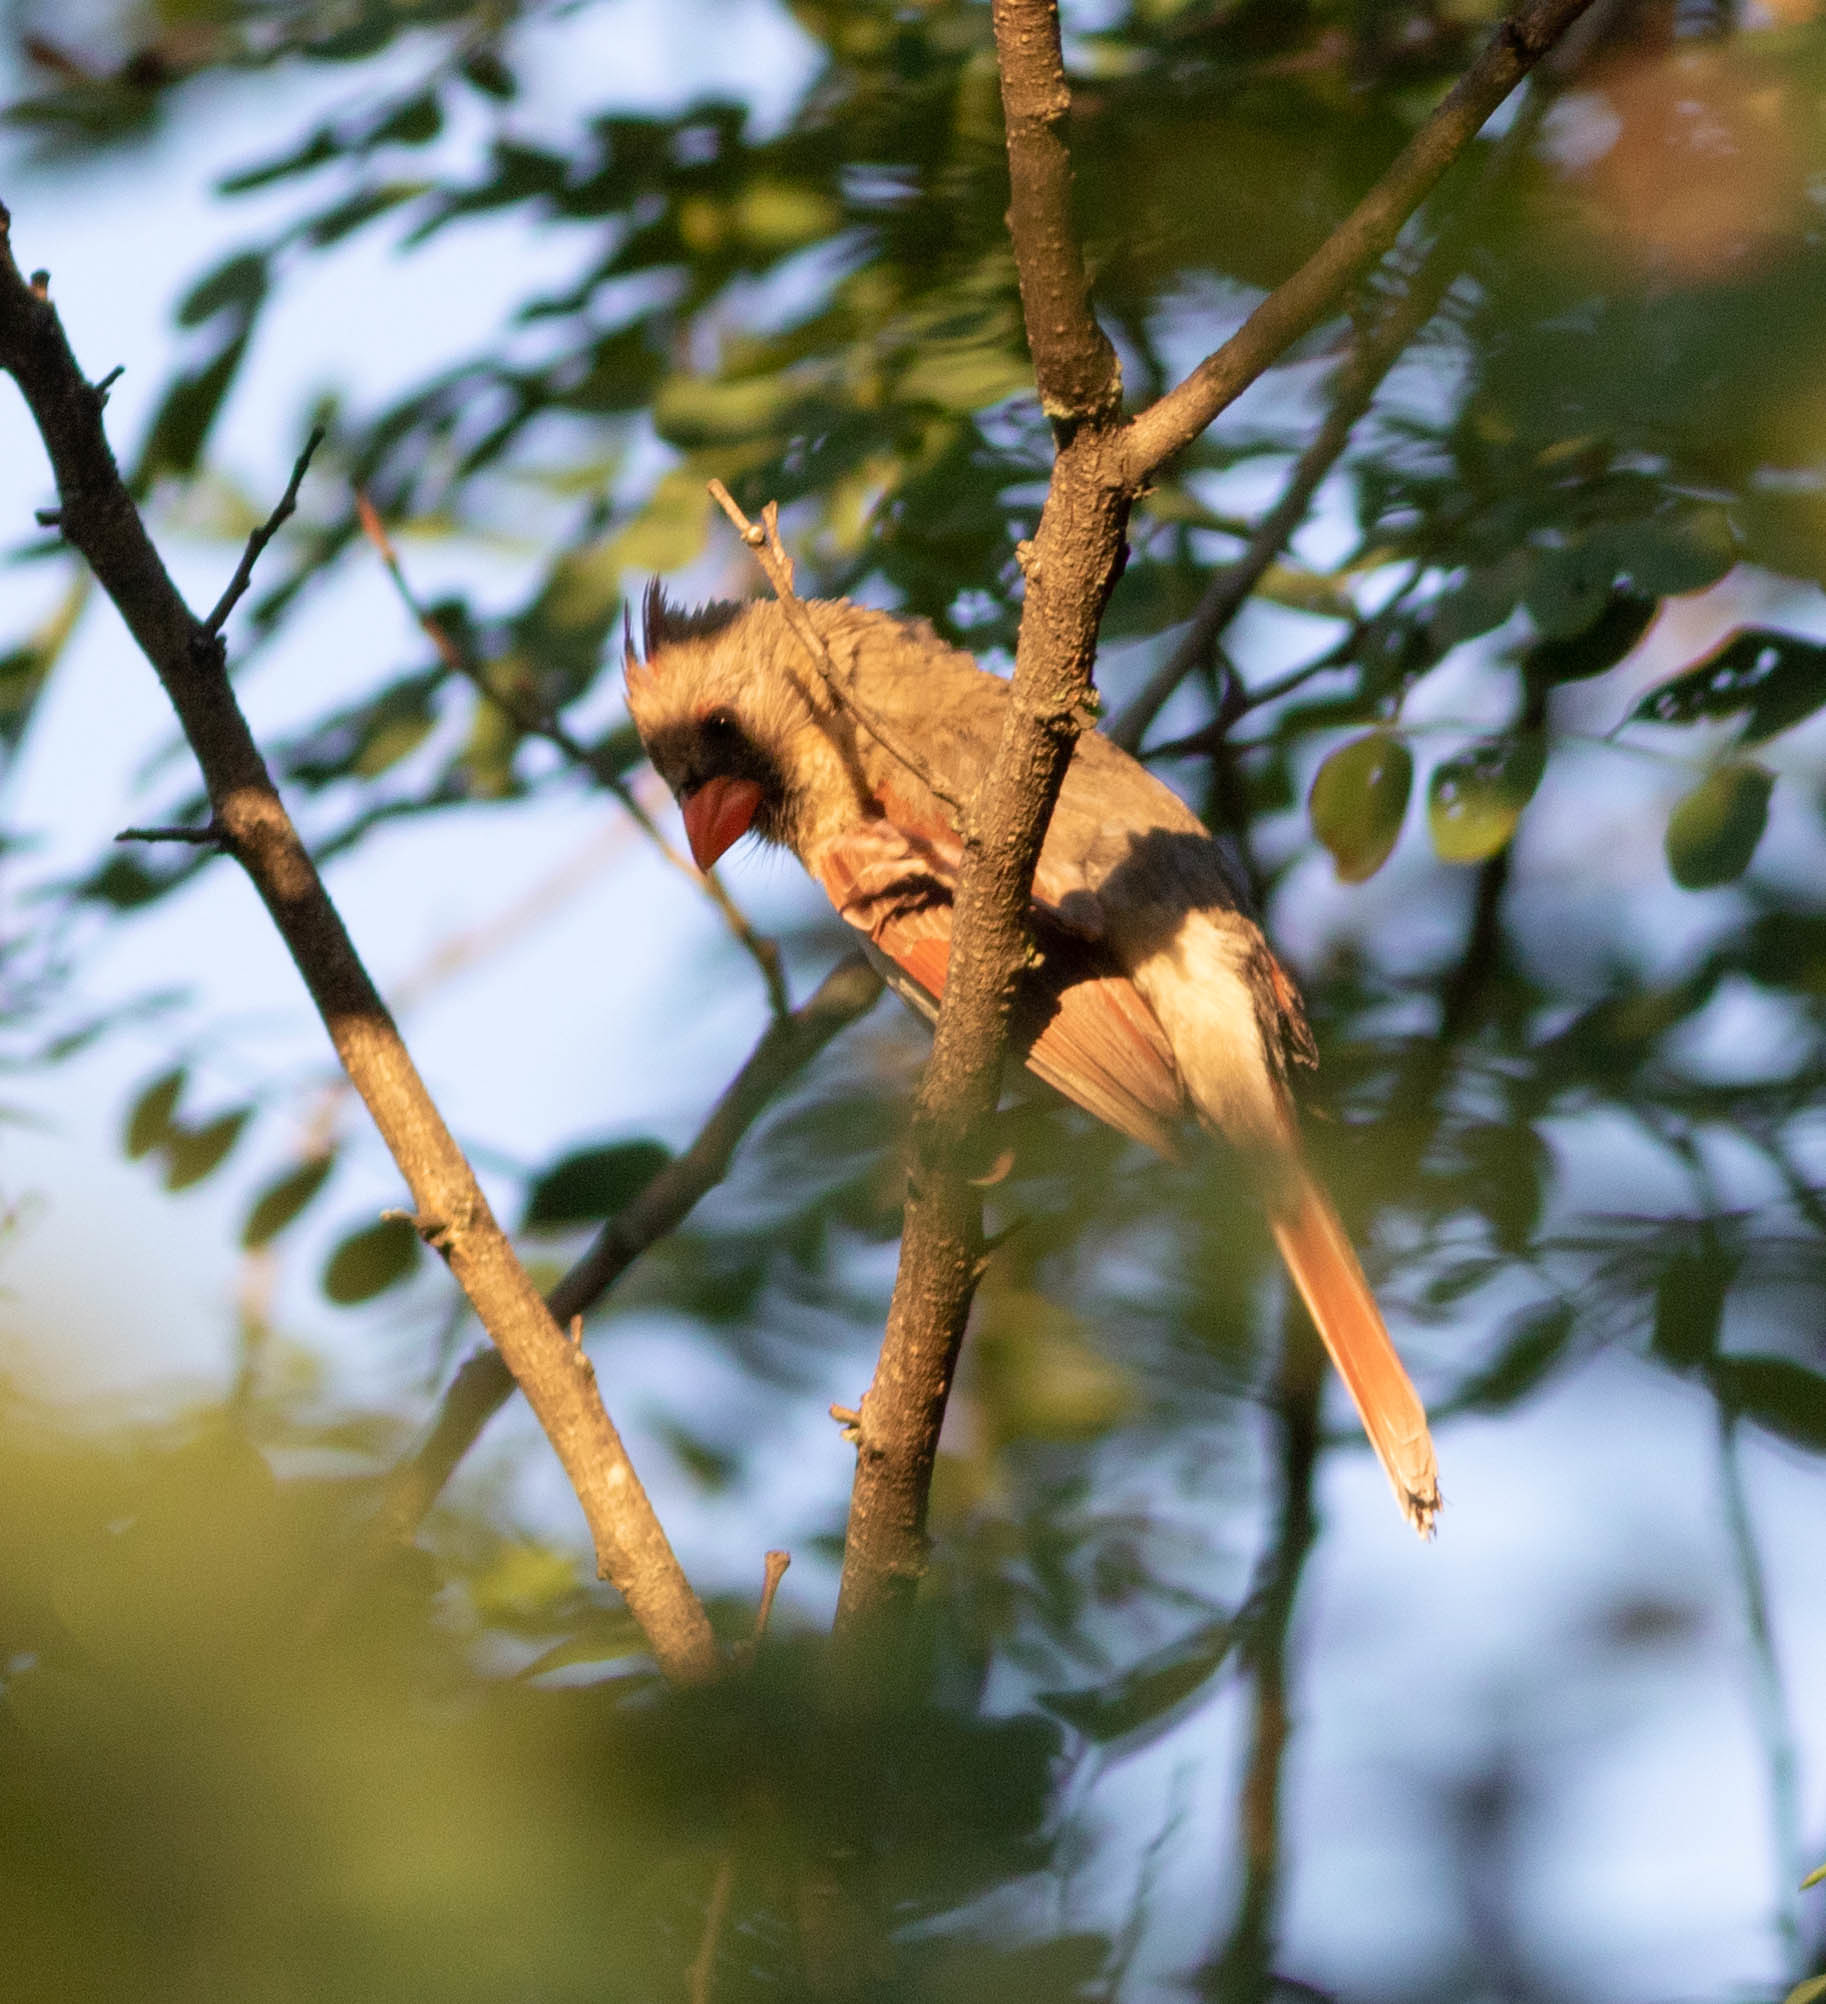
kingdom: Animalia
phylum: Chordata
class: Aves
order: Passeriformes
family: Cardinalidae
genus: Cardinalis
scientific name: Cardinalis cardinalis
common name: Northern cardinal
